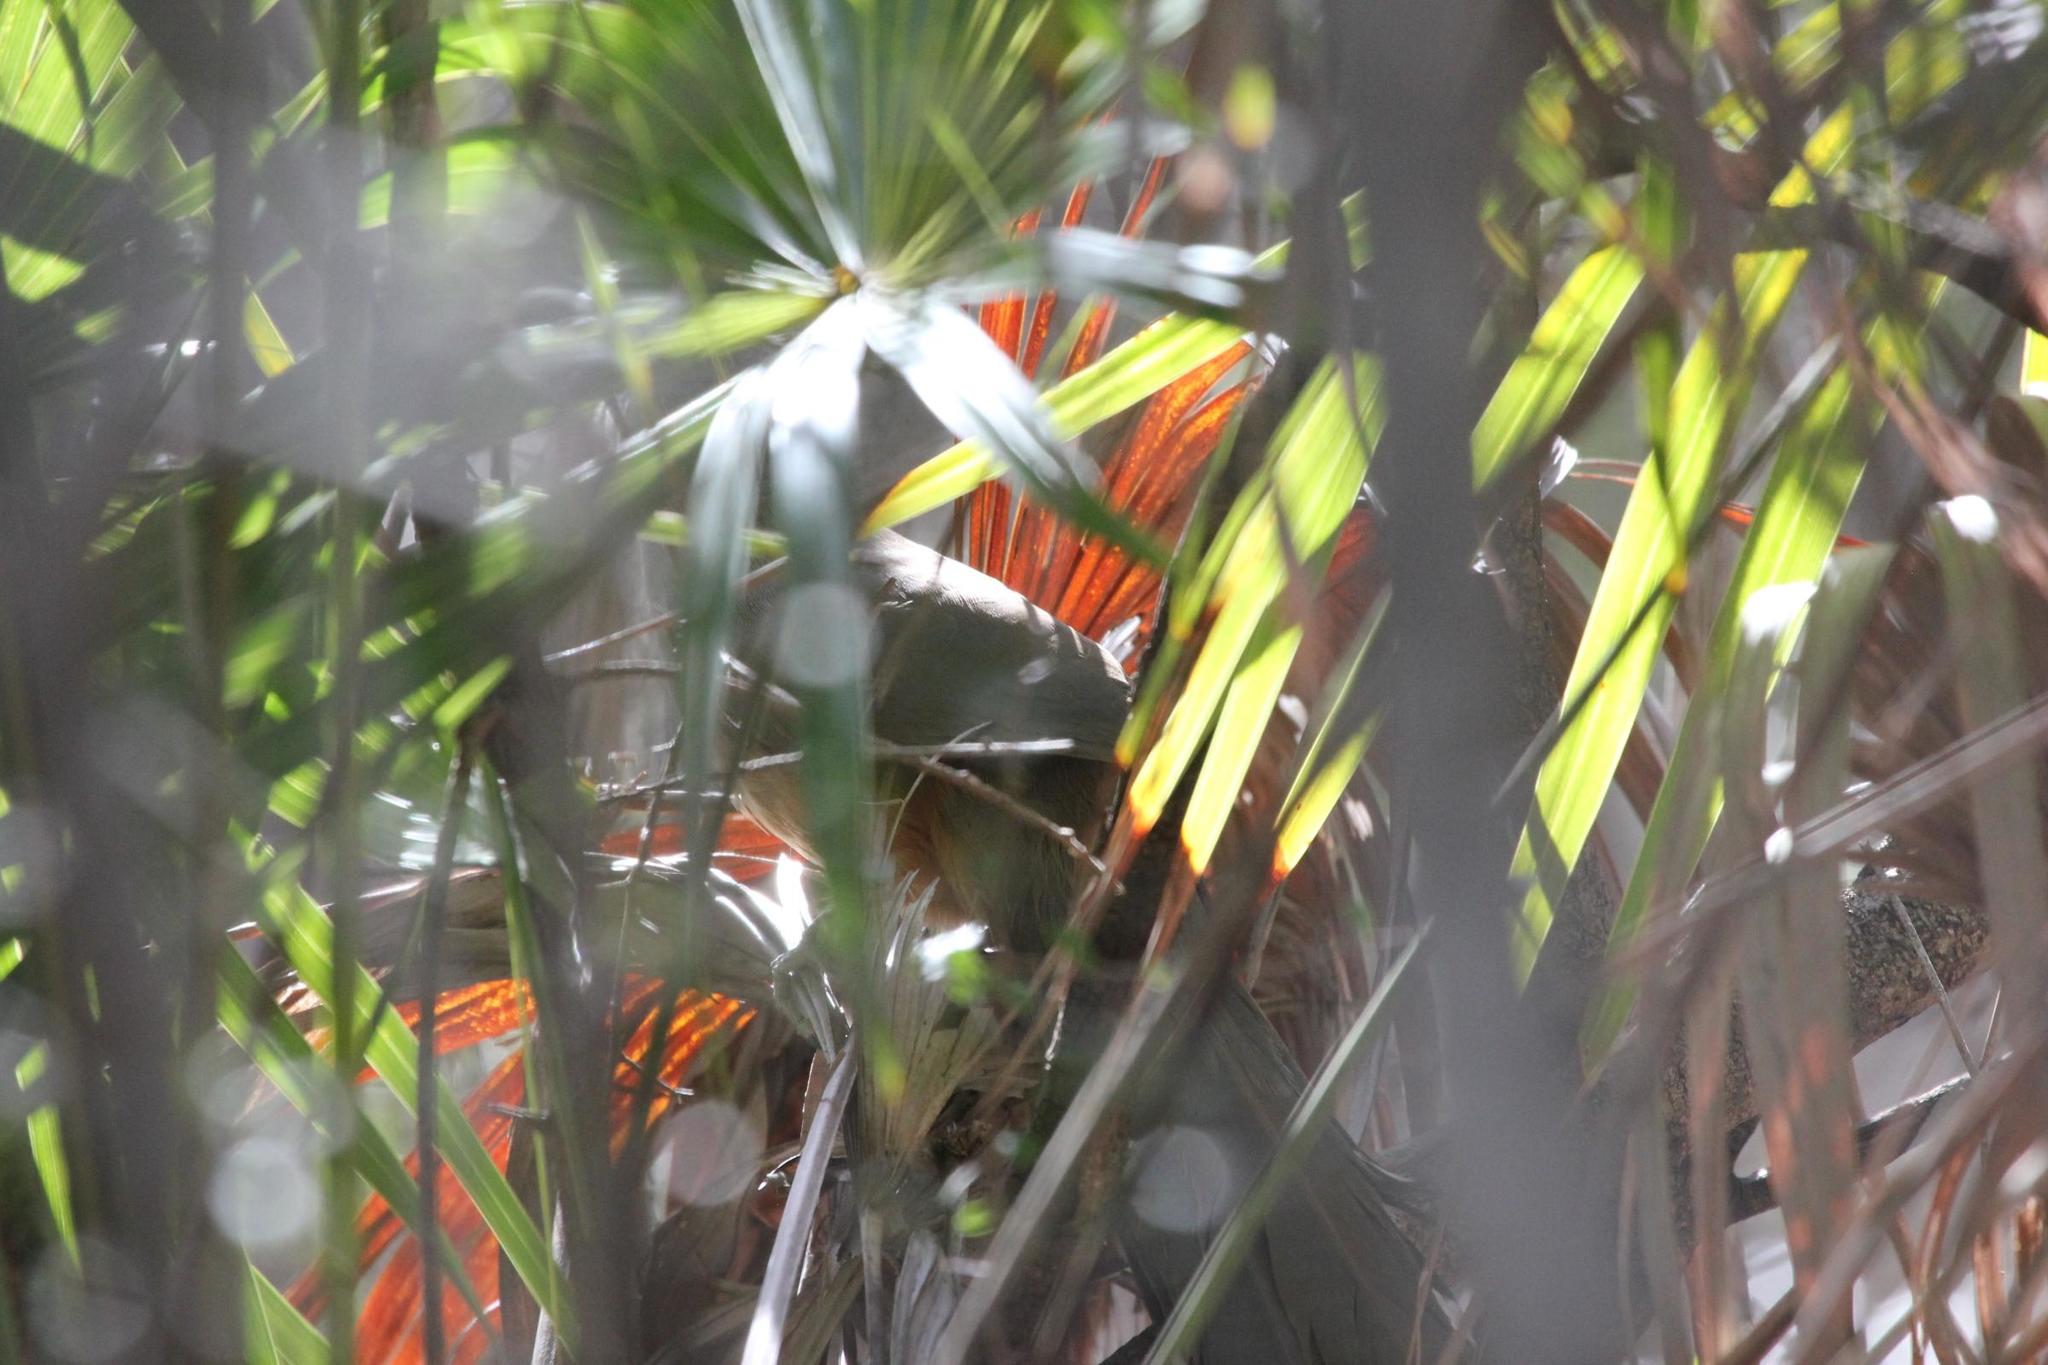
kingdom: Animalia
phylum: Chordata
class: Aves
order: Cuculiformes
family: Cuculidae
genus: Saurothera
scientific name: Saurothera vieilloti
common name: Puerto rican lizard-cuckoo
